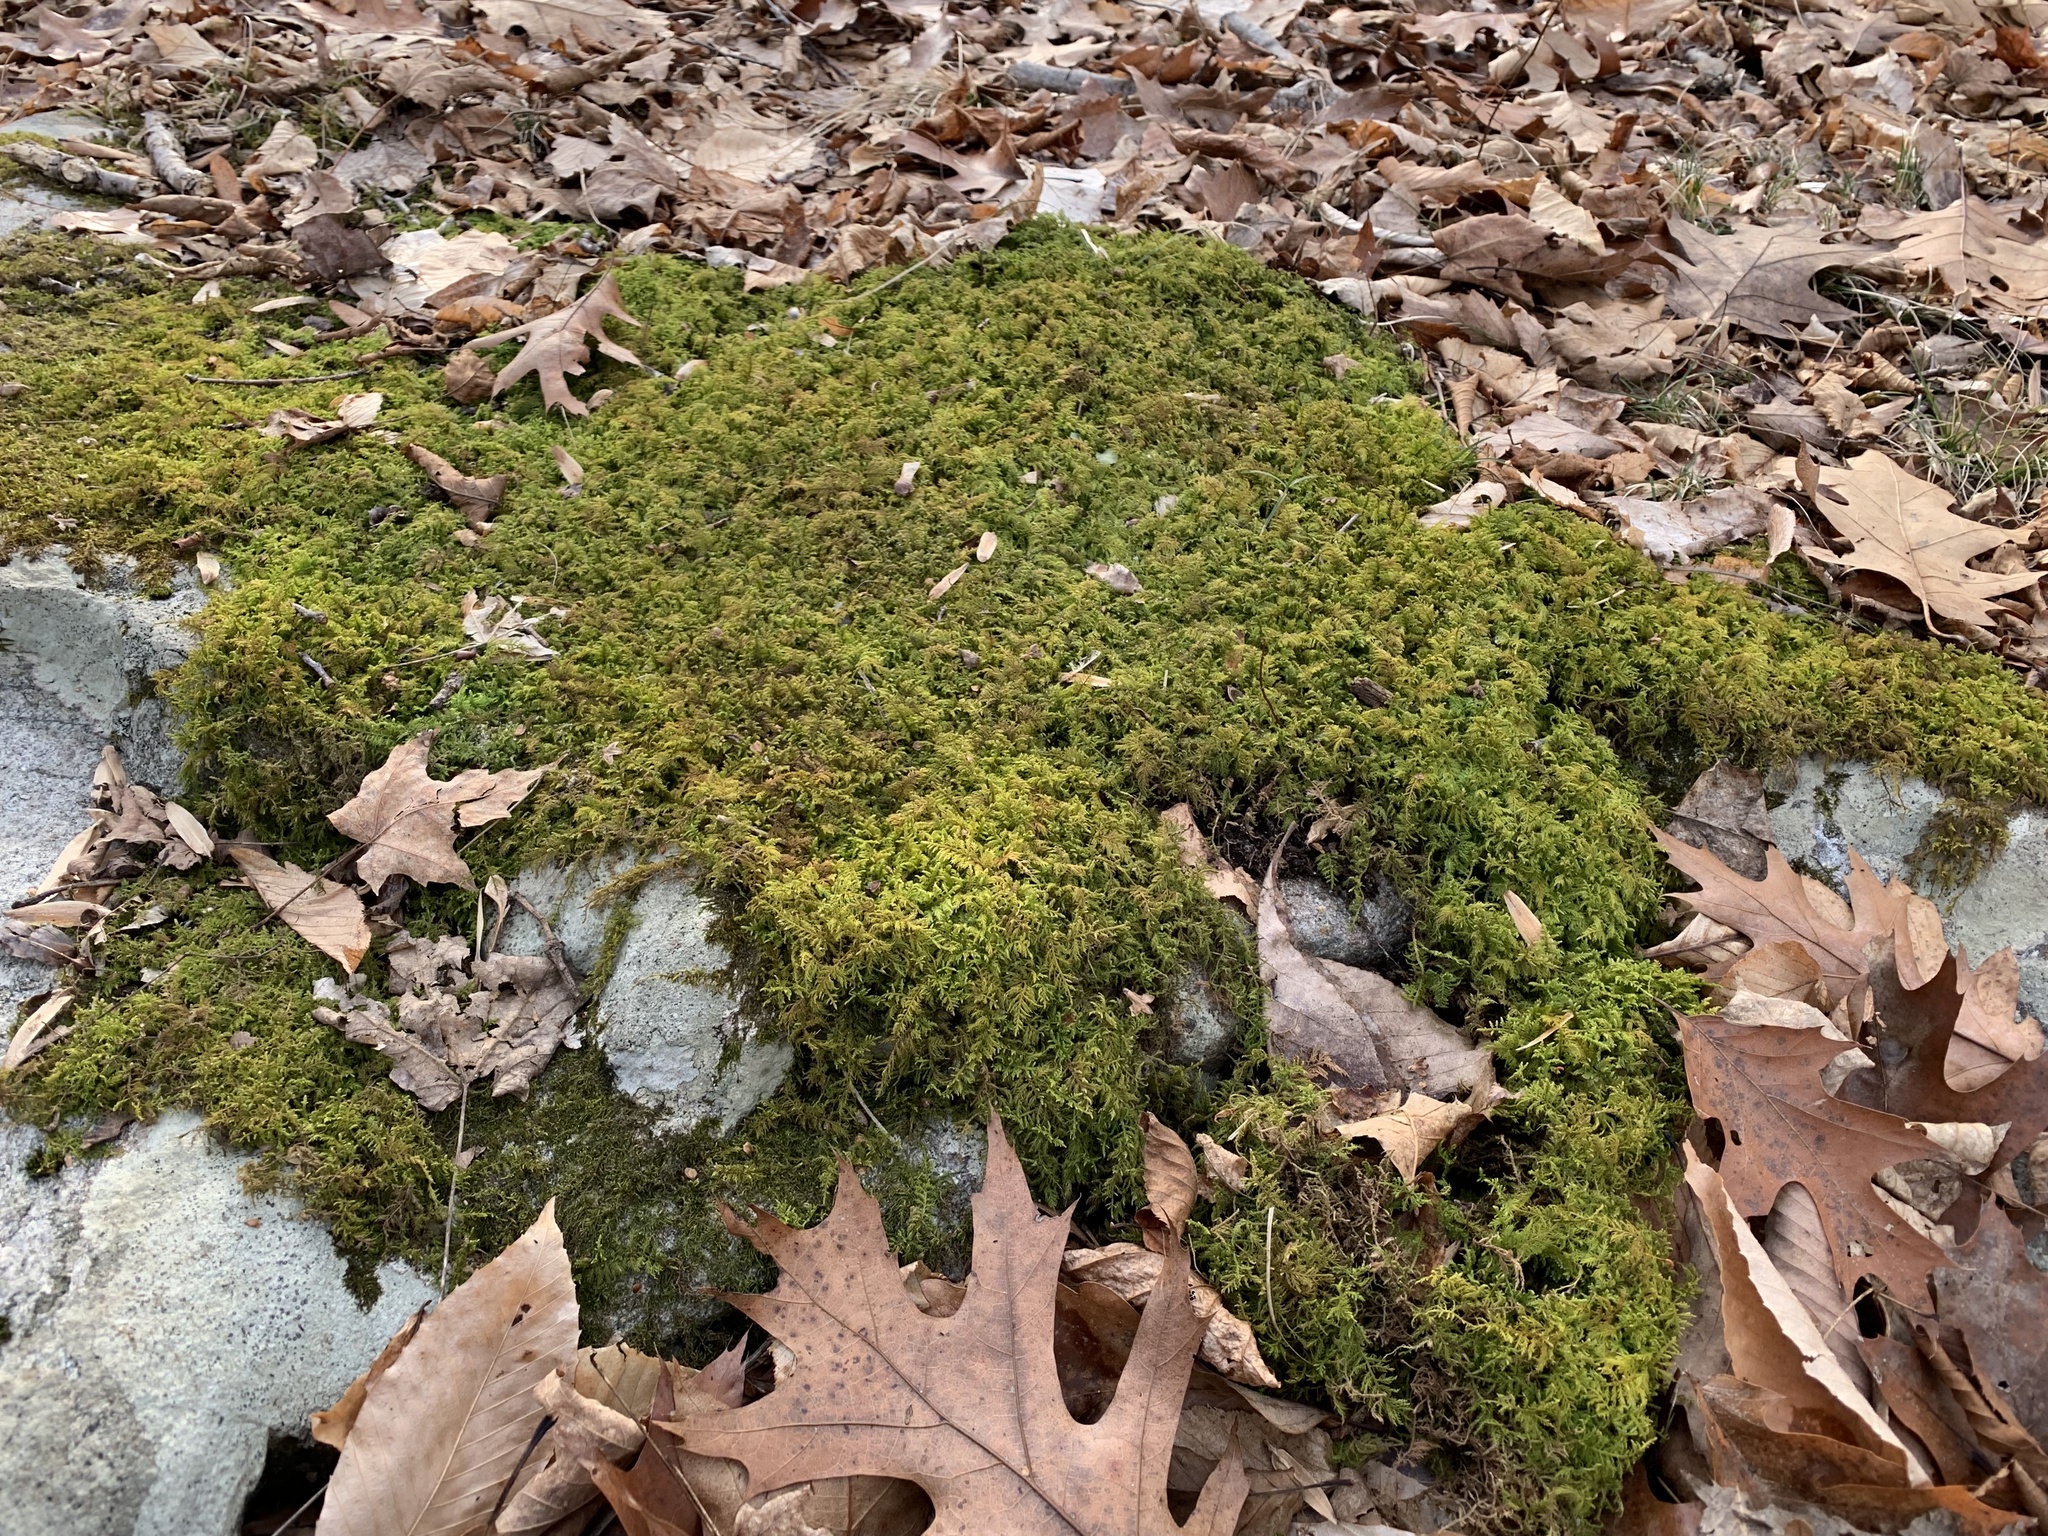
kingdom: Plantae
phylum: Bryophyta
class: Bryopsida
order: Hypnales
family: Thuidiaceae
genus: Thuidium
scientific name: Thuidium delicatulum
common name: Delicate fern moss
